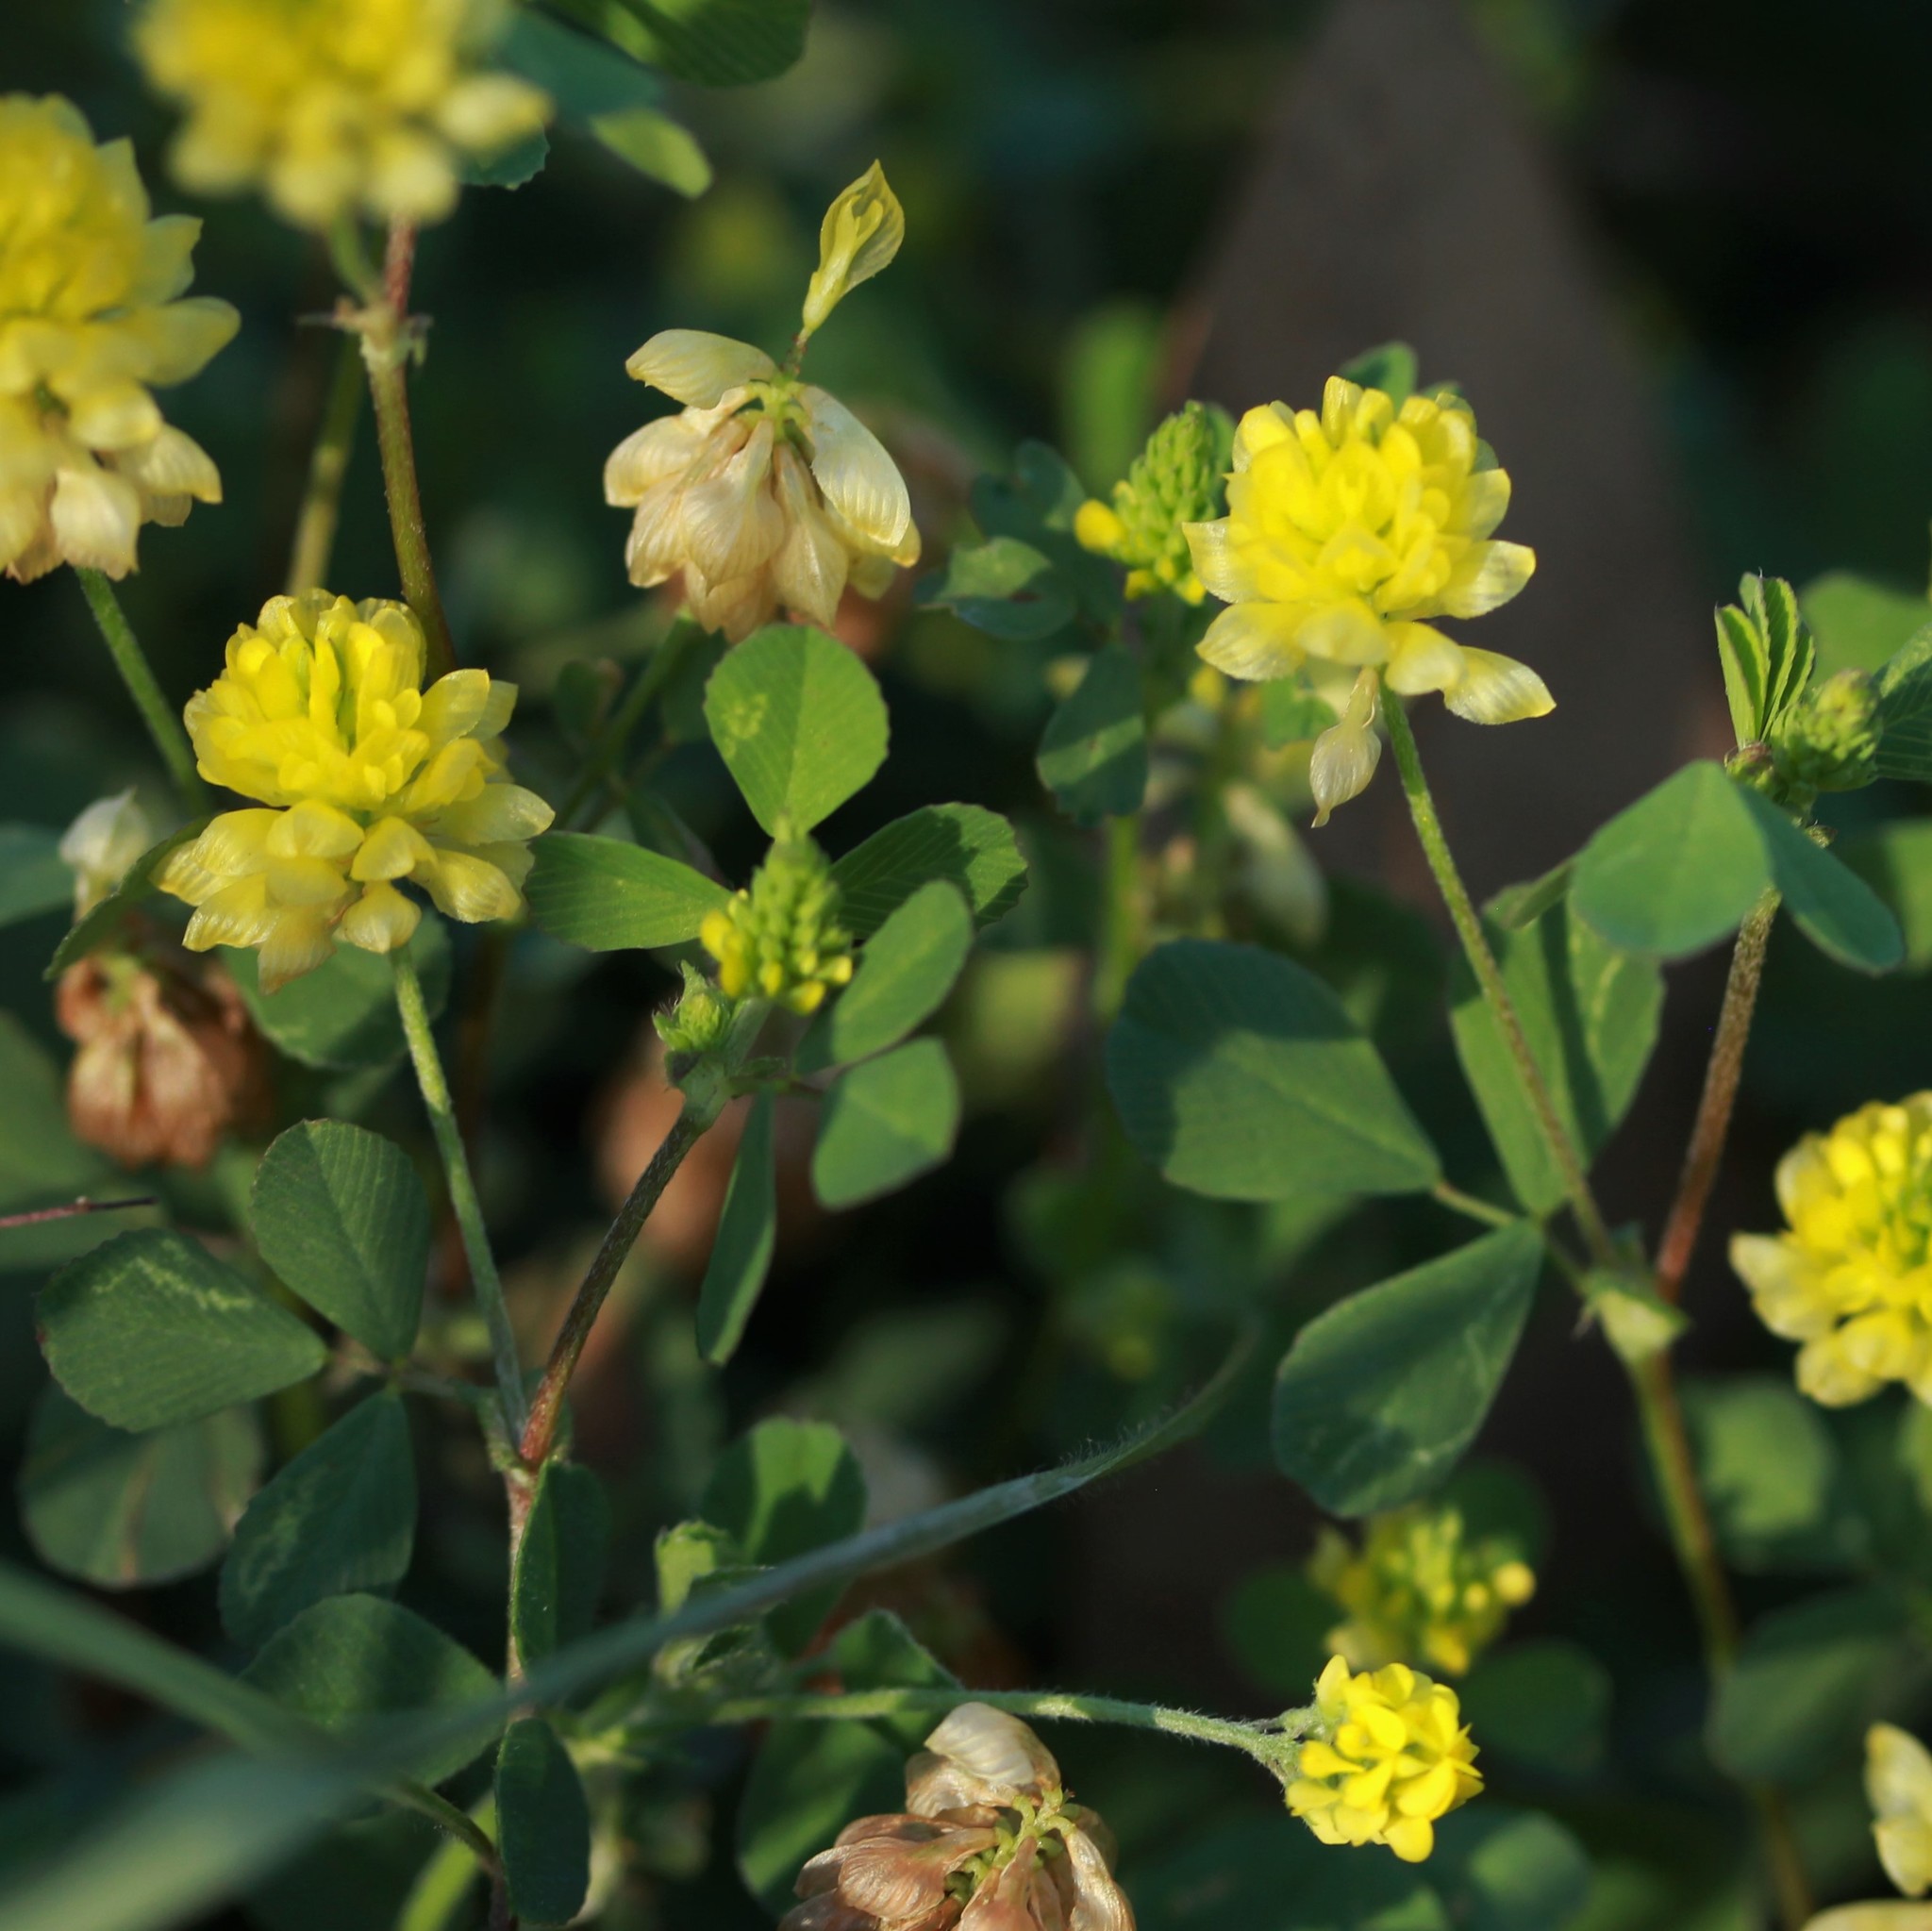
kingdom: Plantae
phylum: Tracheophyta
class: Magnoliopsida
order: Fabales
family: Fabaceae
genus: Trifolium
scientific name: Trifolium campestre
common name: Field clover
